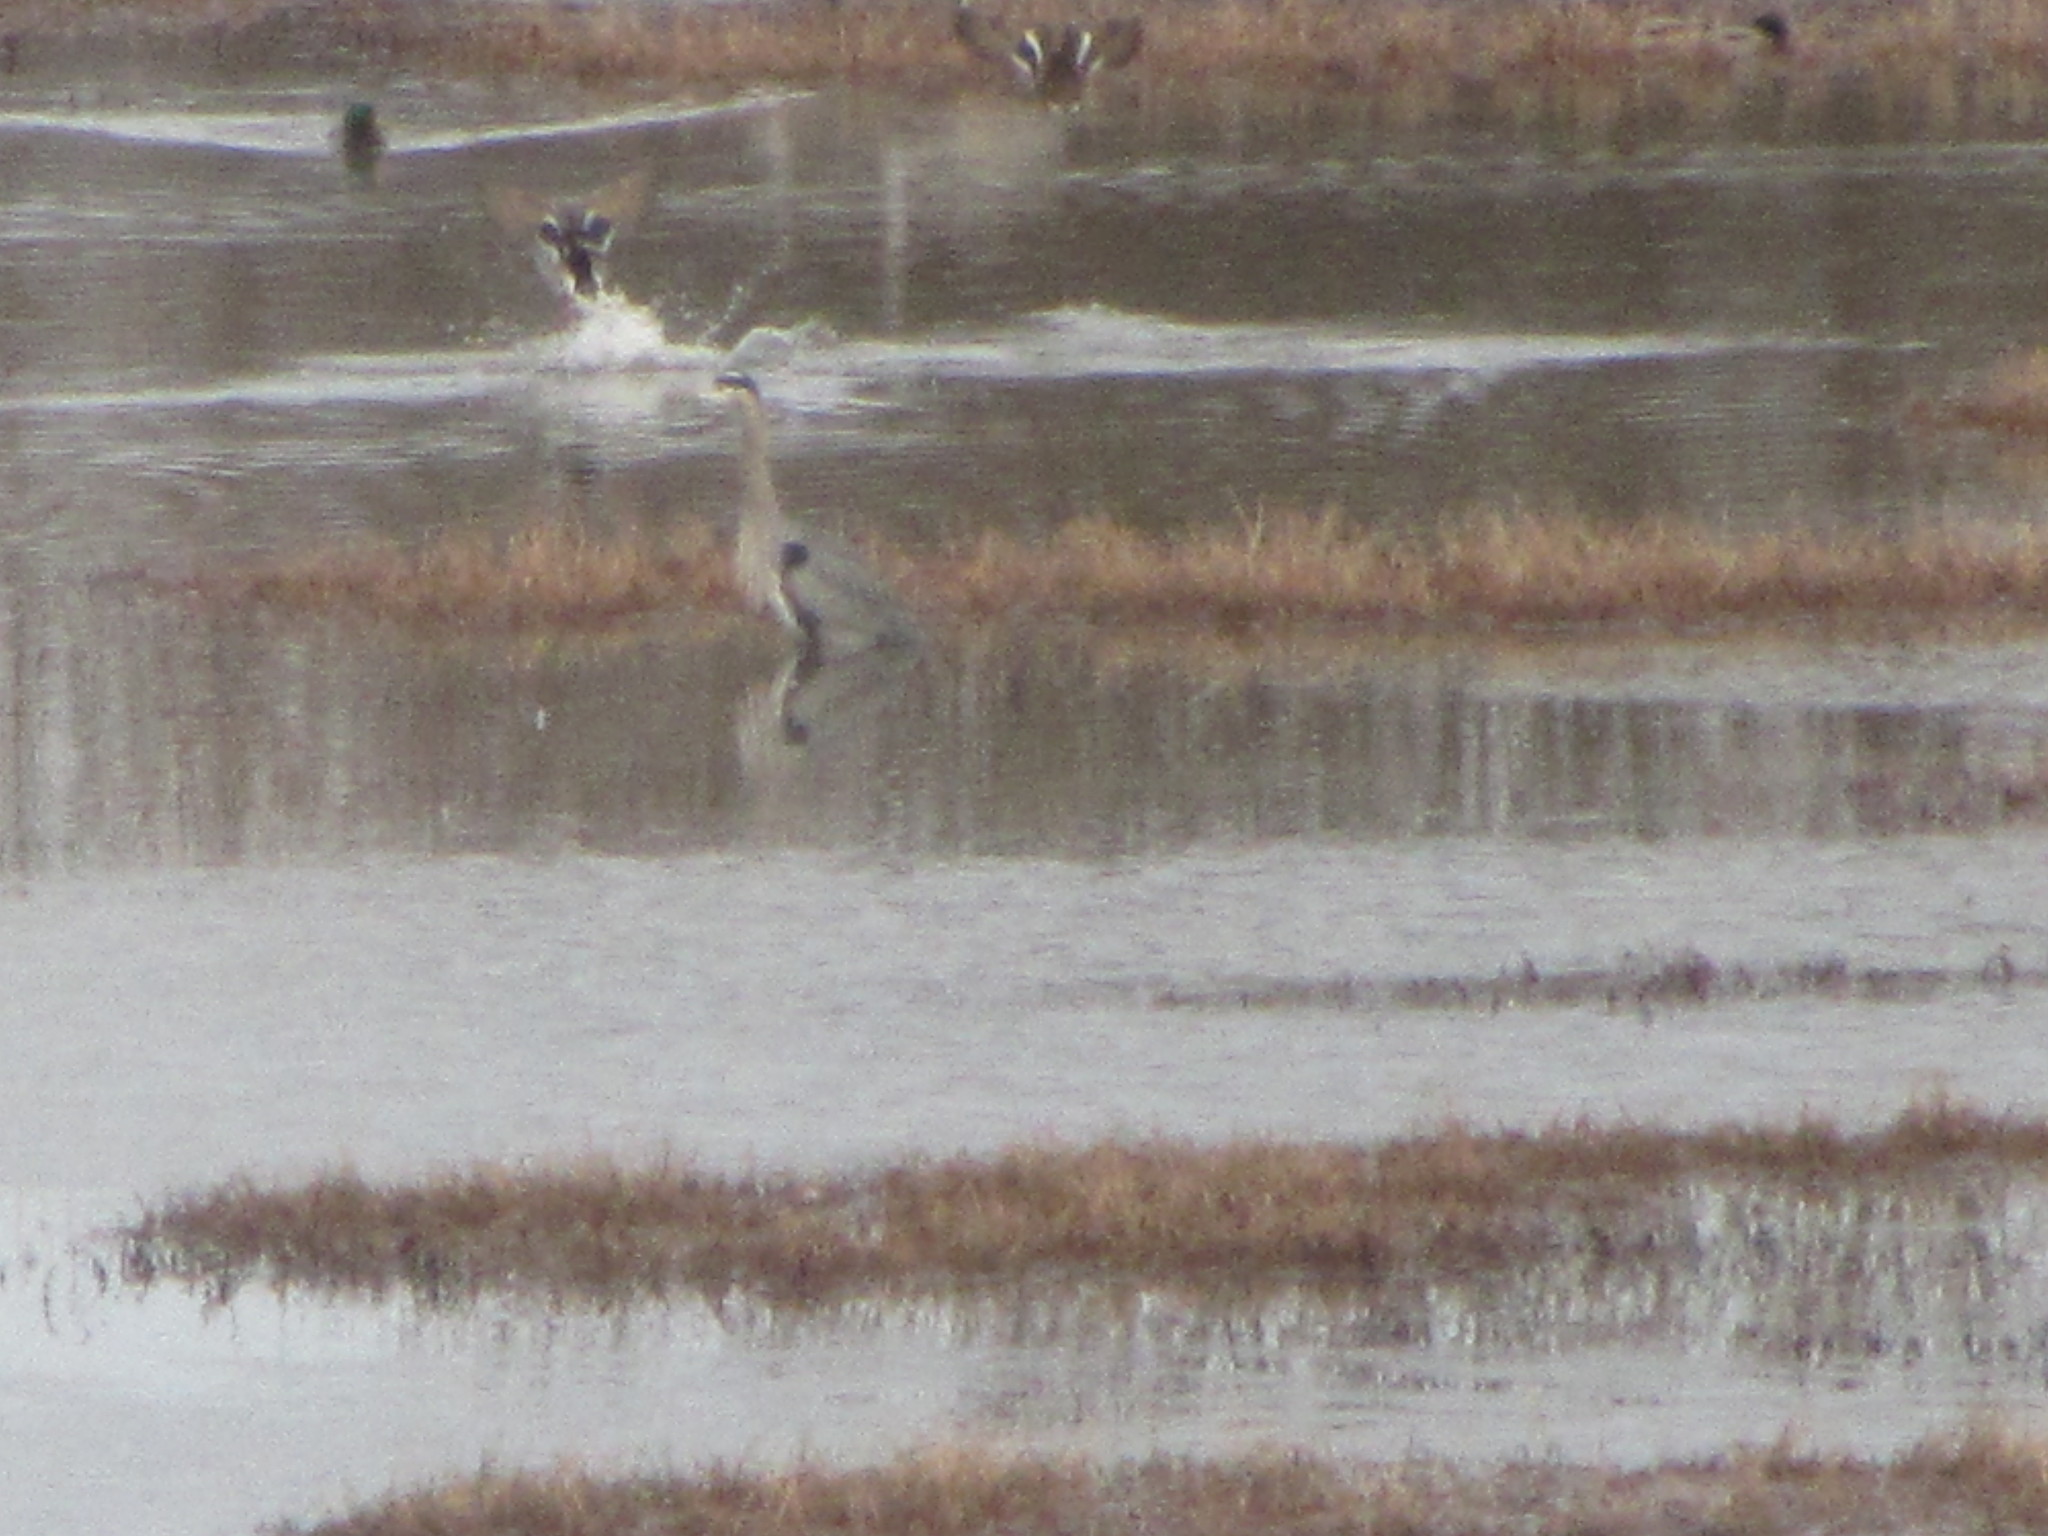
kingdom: Animalia
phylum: Chordata
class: Aves
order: Pelecaniformes
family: Ardeidae
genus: Ardea
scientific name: Ardea herodias
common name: Great blue heron
